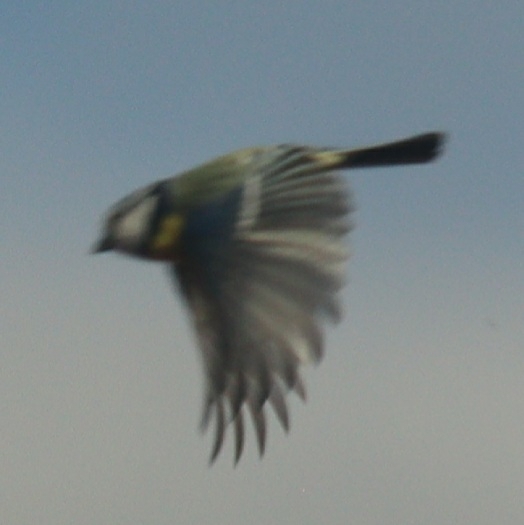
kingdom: Animalia
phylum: Chordata
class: Aves
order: Passeriformes
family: Paridae
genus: Cyanistes
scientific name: Cyanistes caeruleus
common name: Eurasian blue tit
